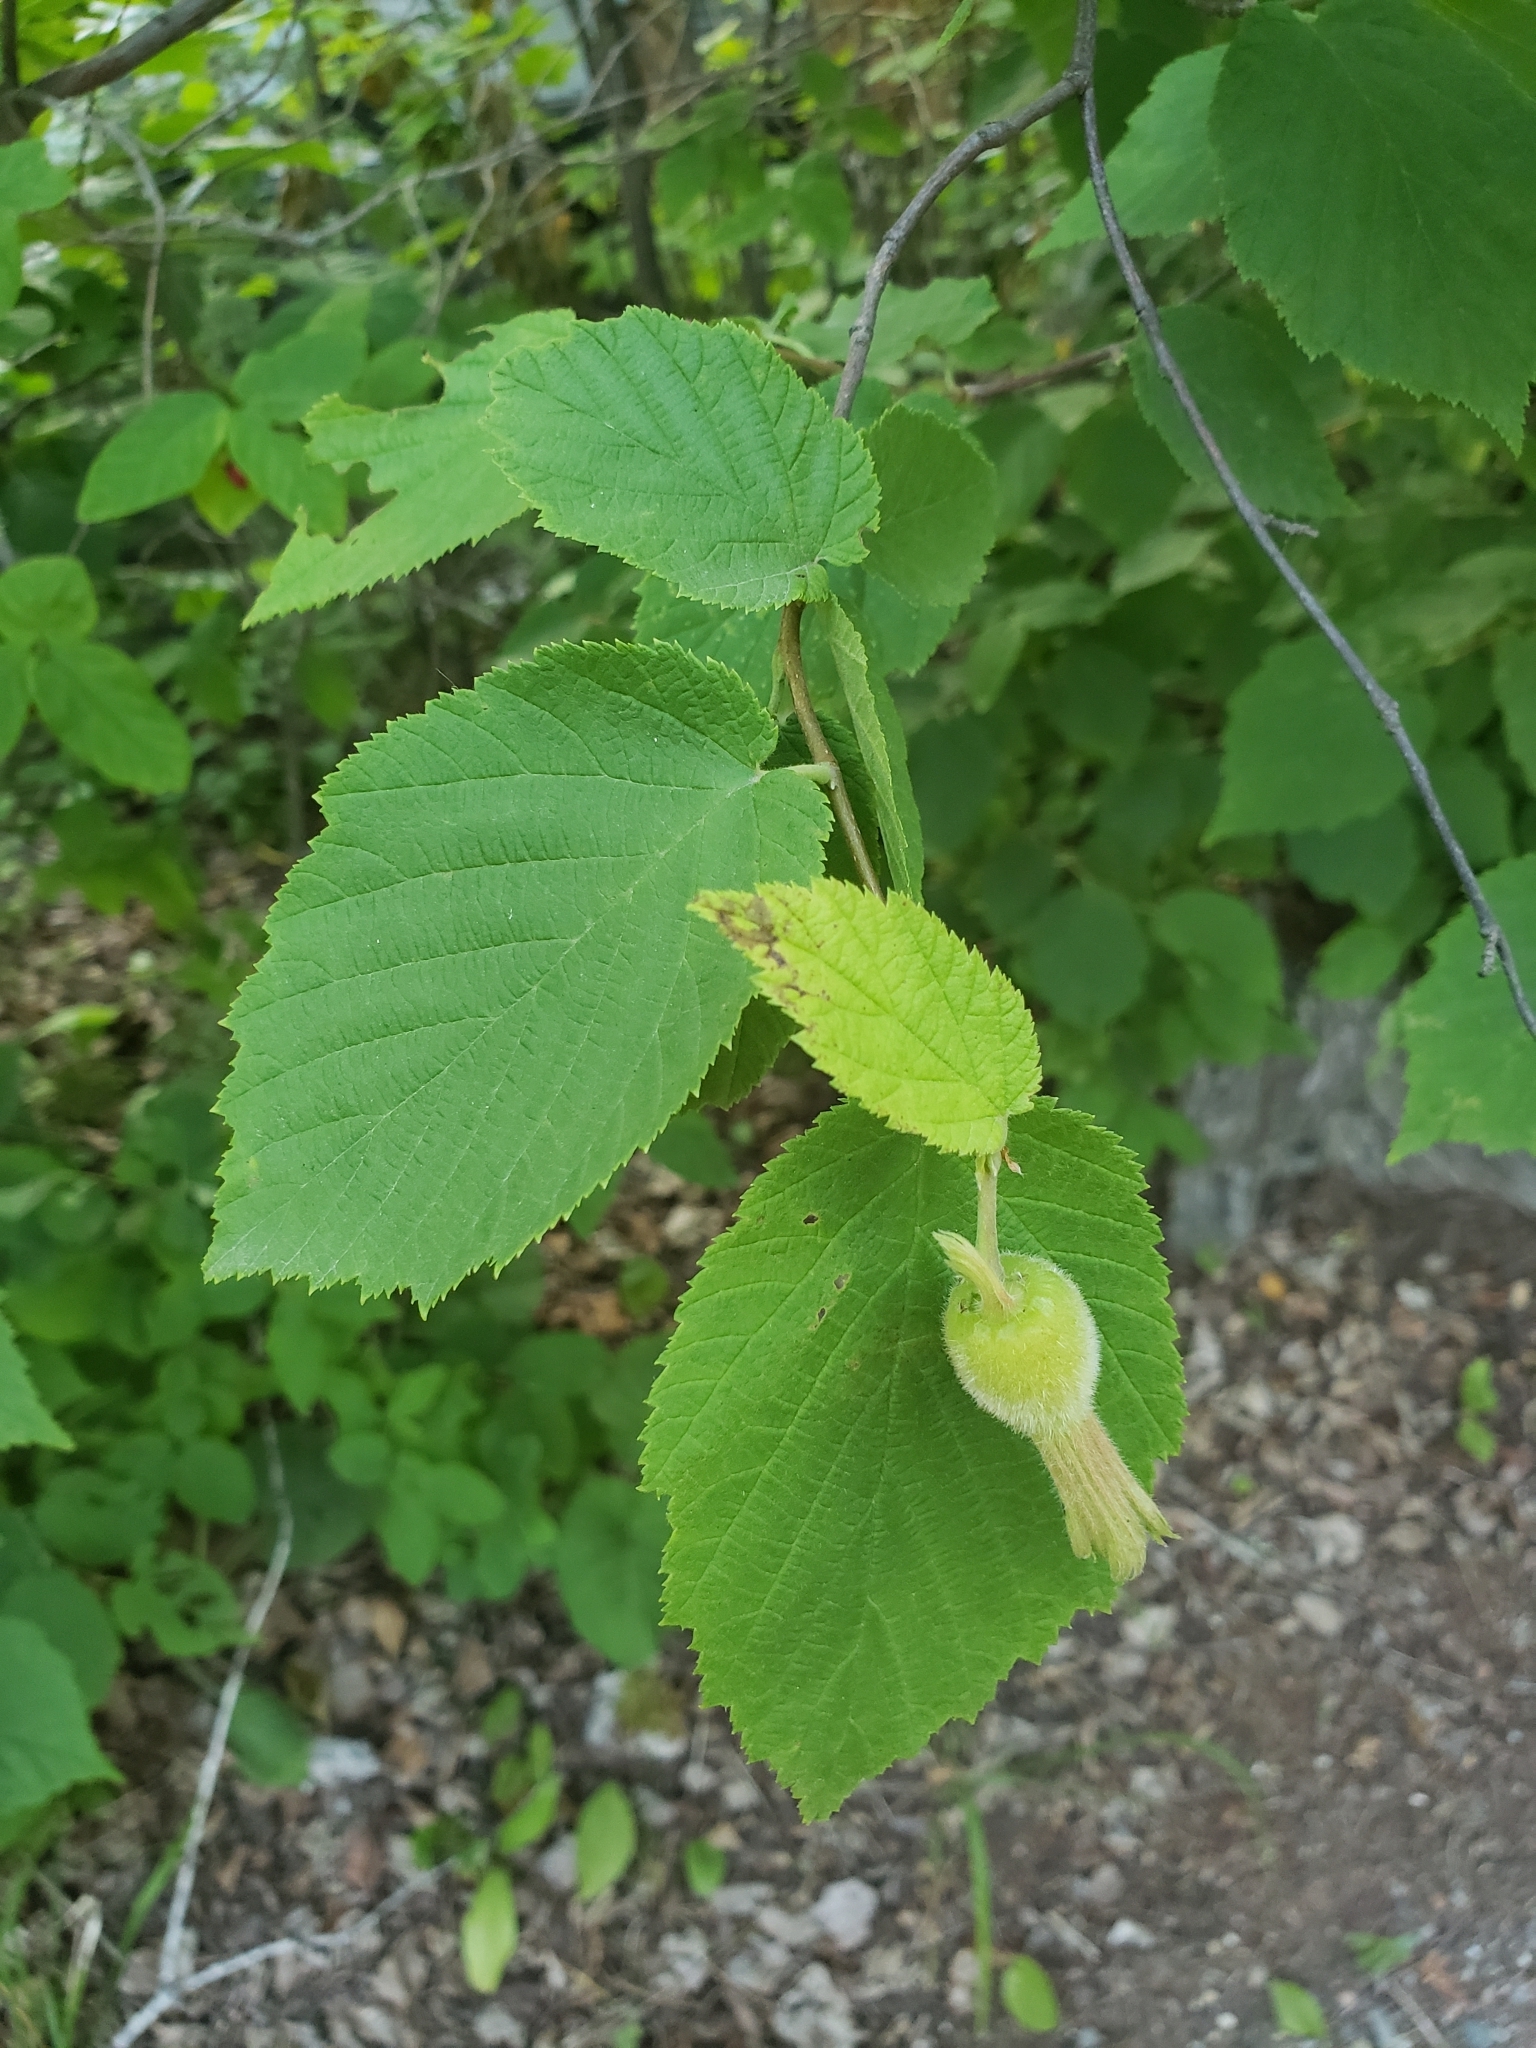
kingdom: Plantae
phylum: Tracheophyta
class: Magnoliopsida
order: Fagales
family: Betulaceae
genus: Corylus
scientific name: Corylus cornuta
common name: Beaked hazel
